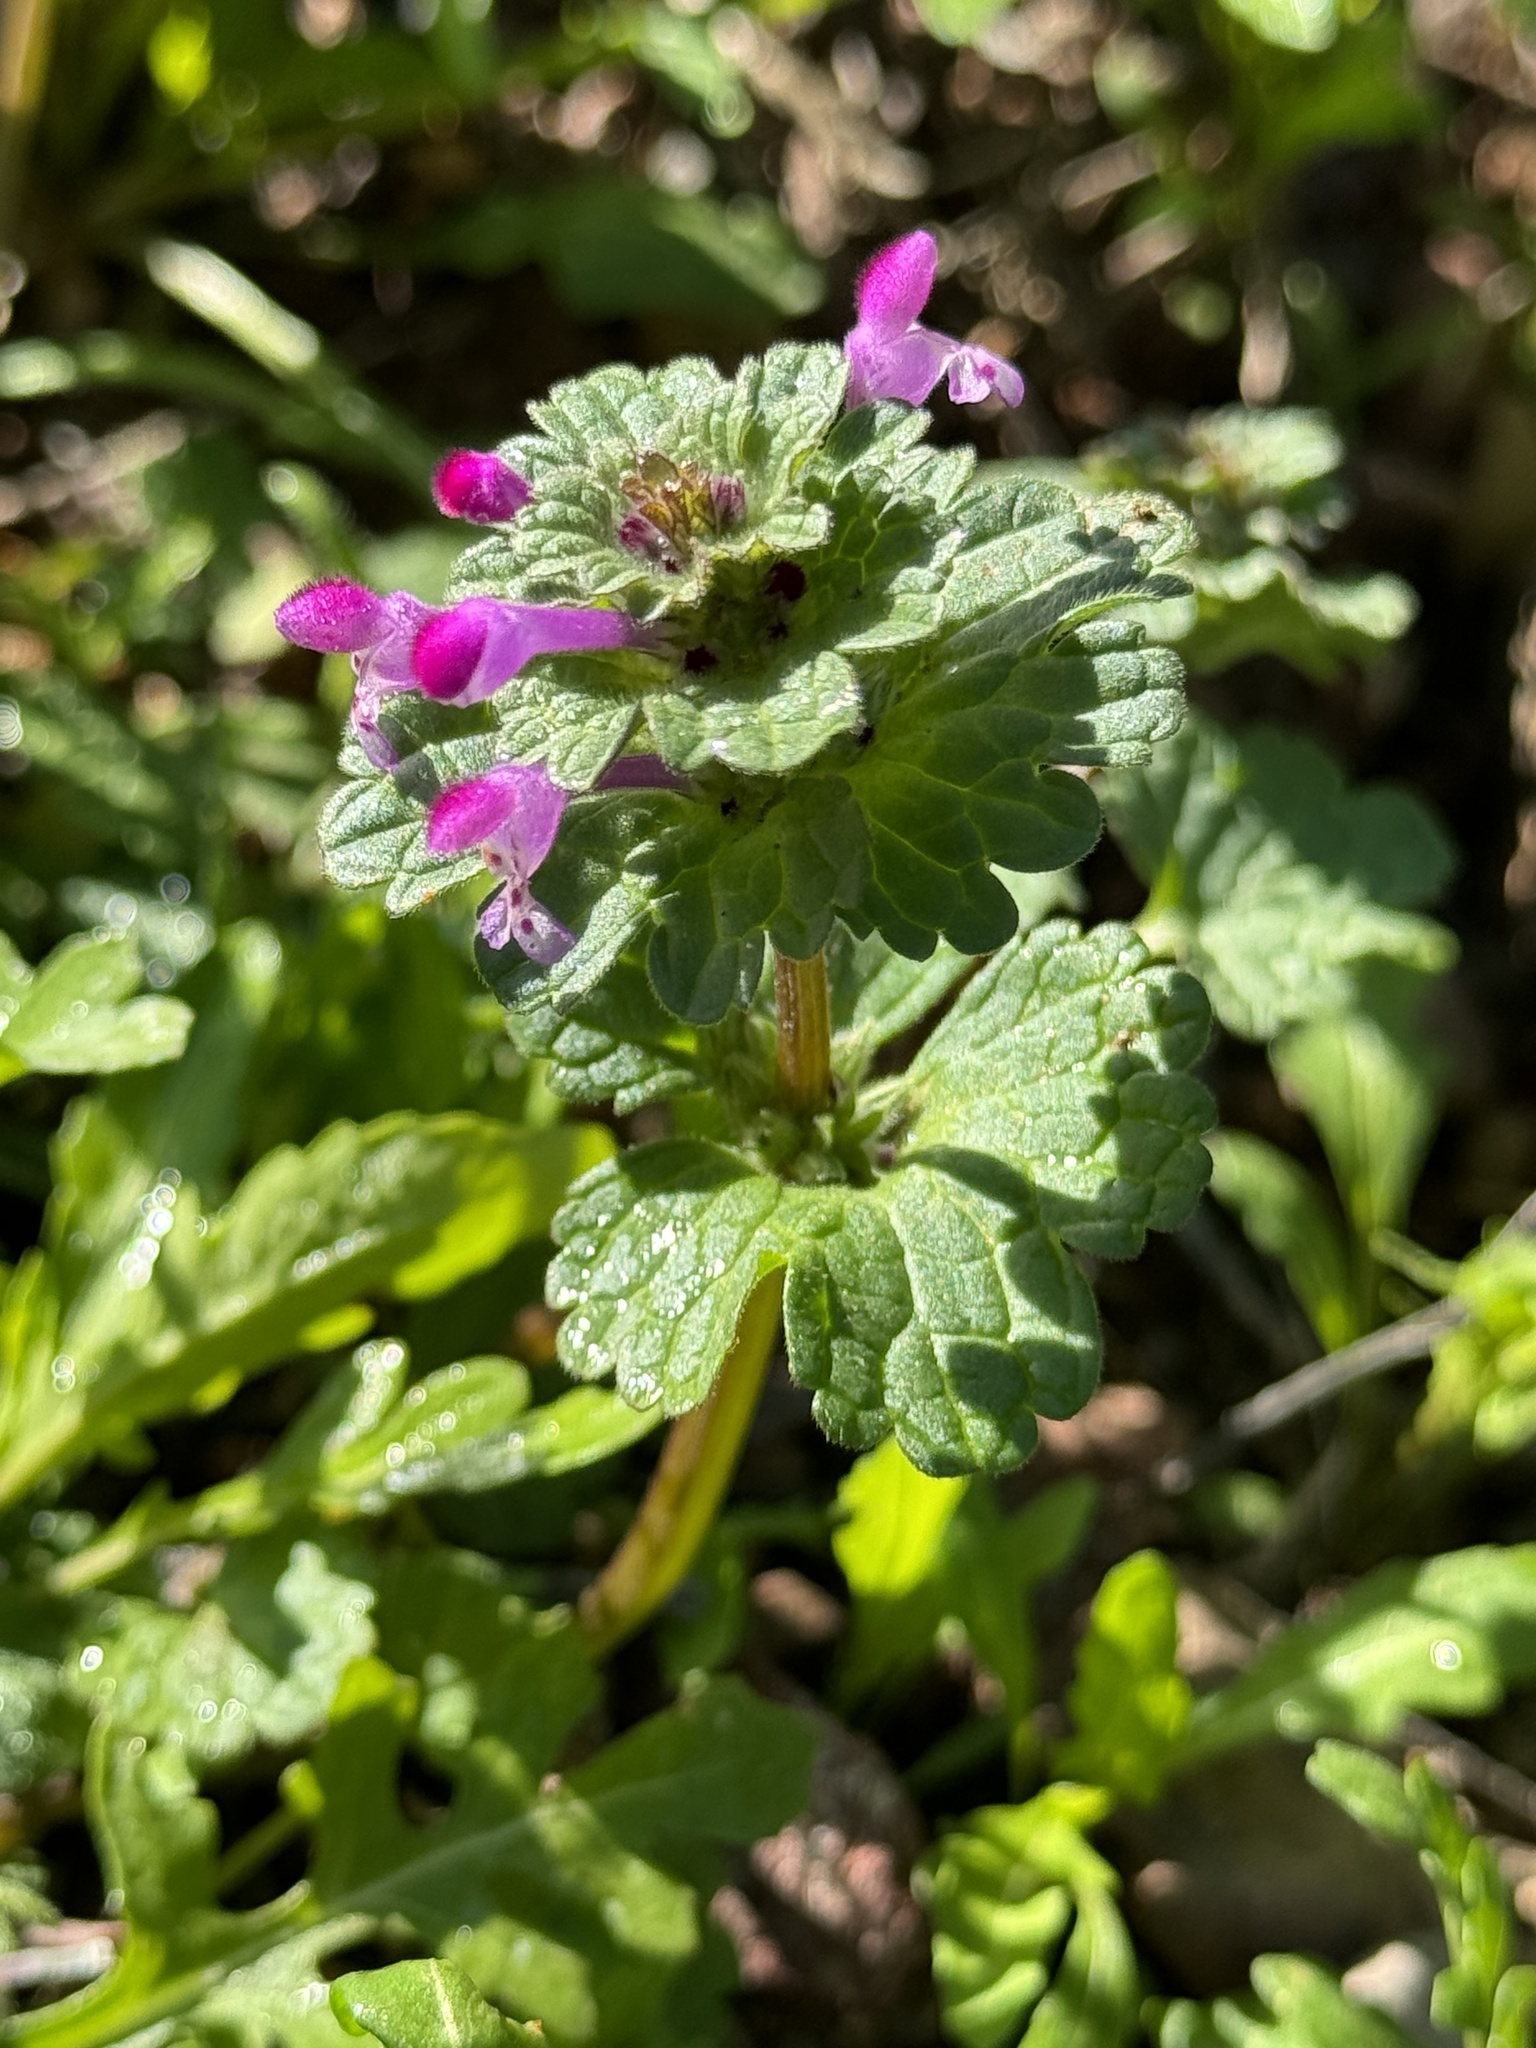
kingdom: Plantae
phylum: Tracheophyta
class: Magnoliopsida
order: Lamiales
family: Lamiaceae
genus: Lamium
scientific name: Lamium amplexicaule
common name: Henbit dead-nettle
